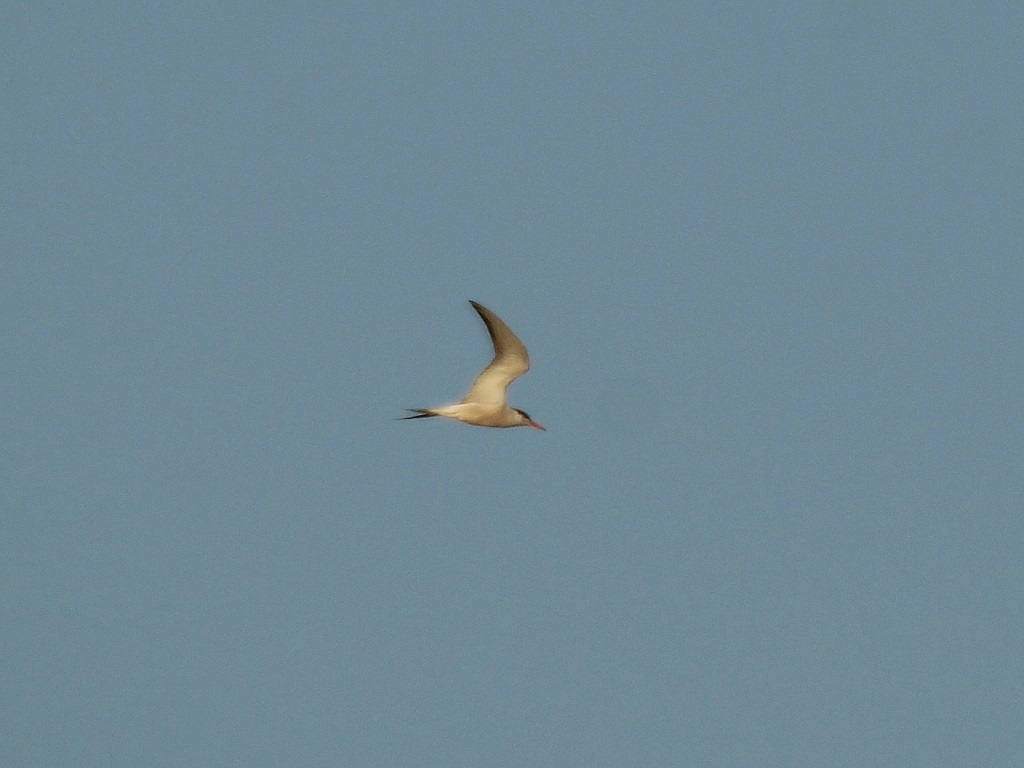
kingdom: Animalia
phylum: Chordata
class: Aves
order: Charadriiformes
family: Laridae
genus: Sterna
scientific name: Sterna hirundo
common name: Common tern
